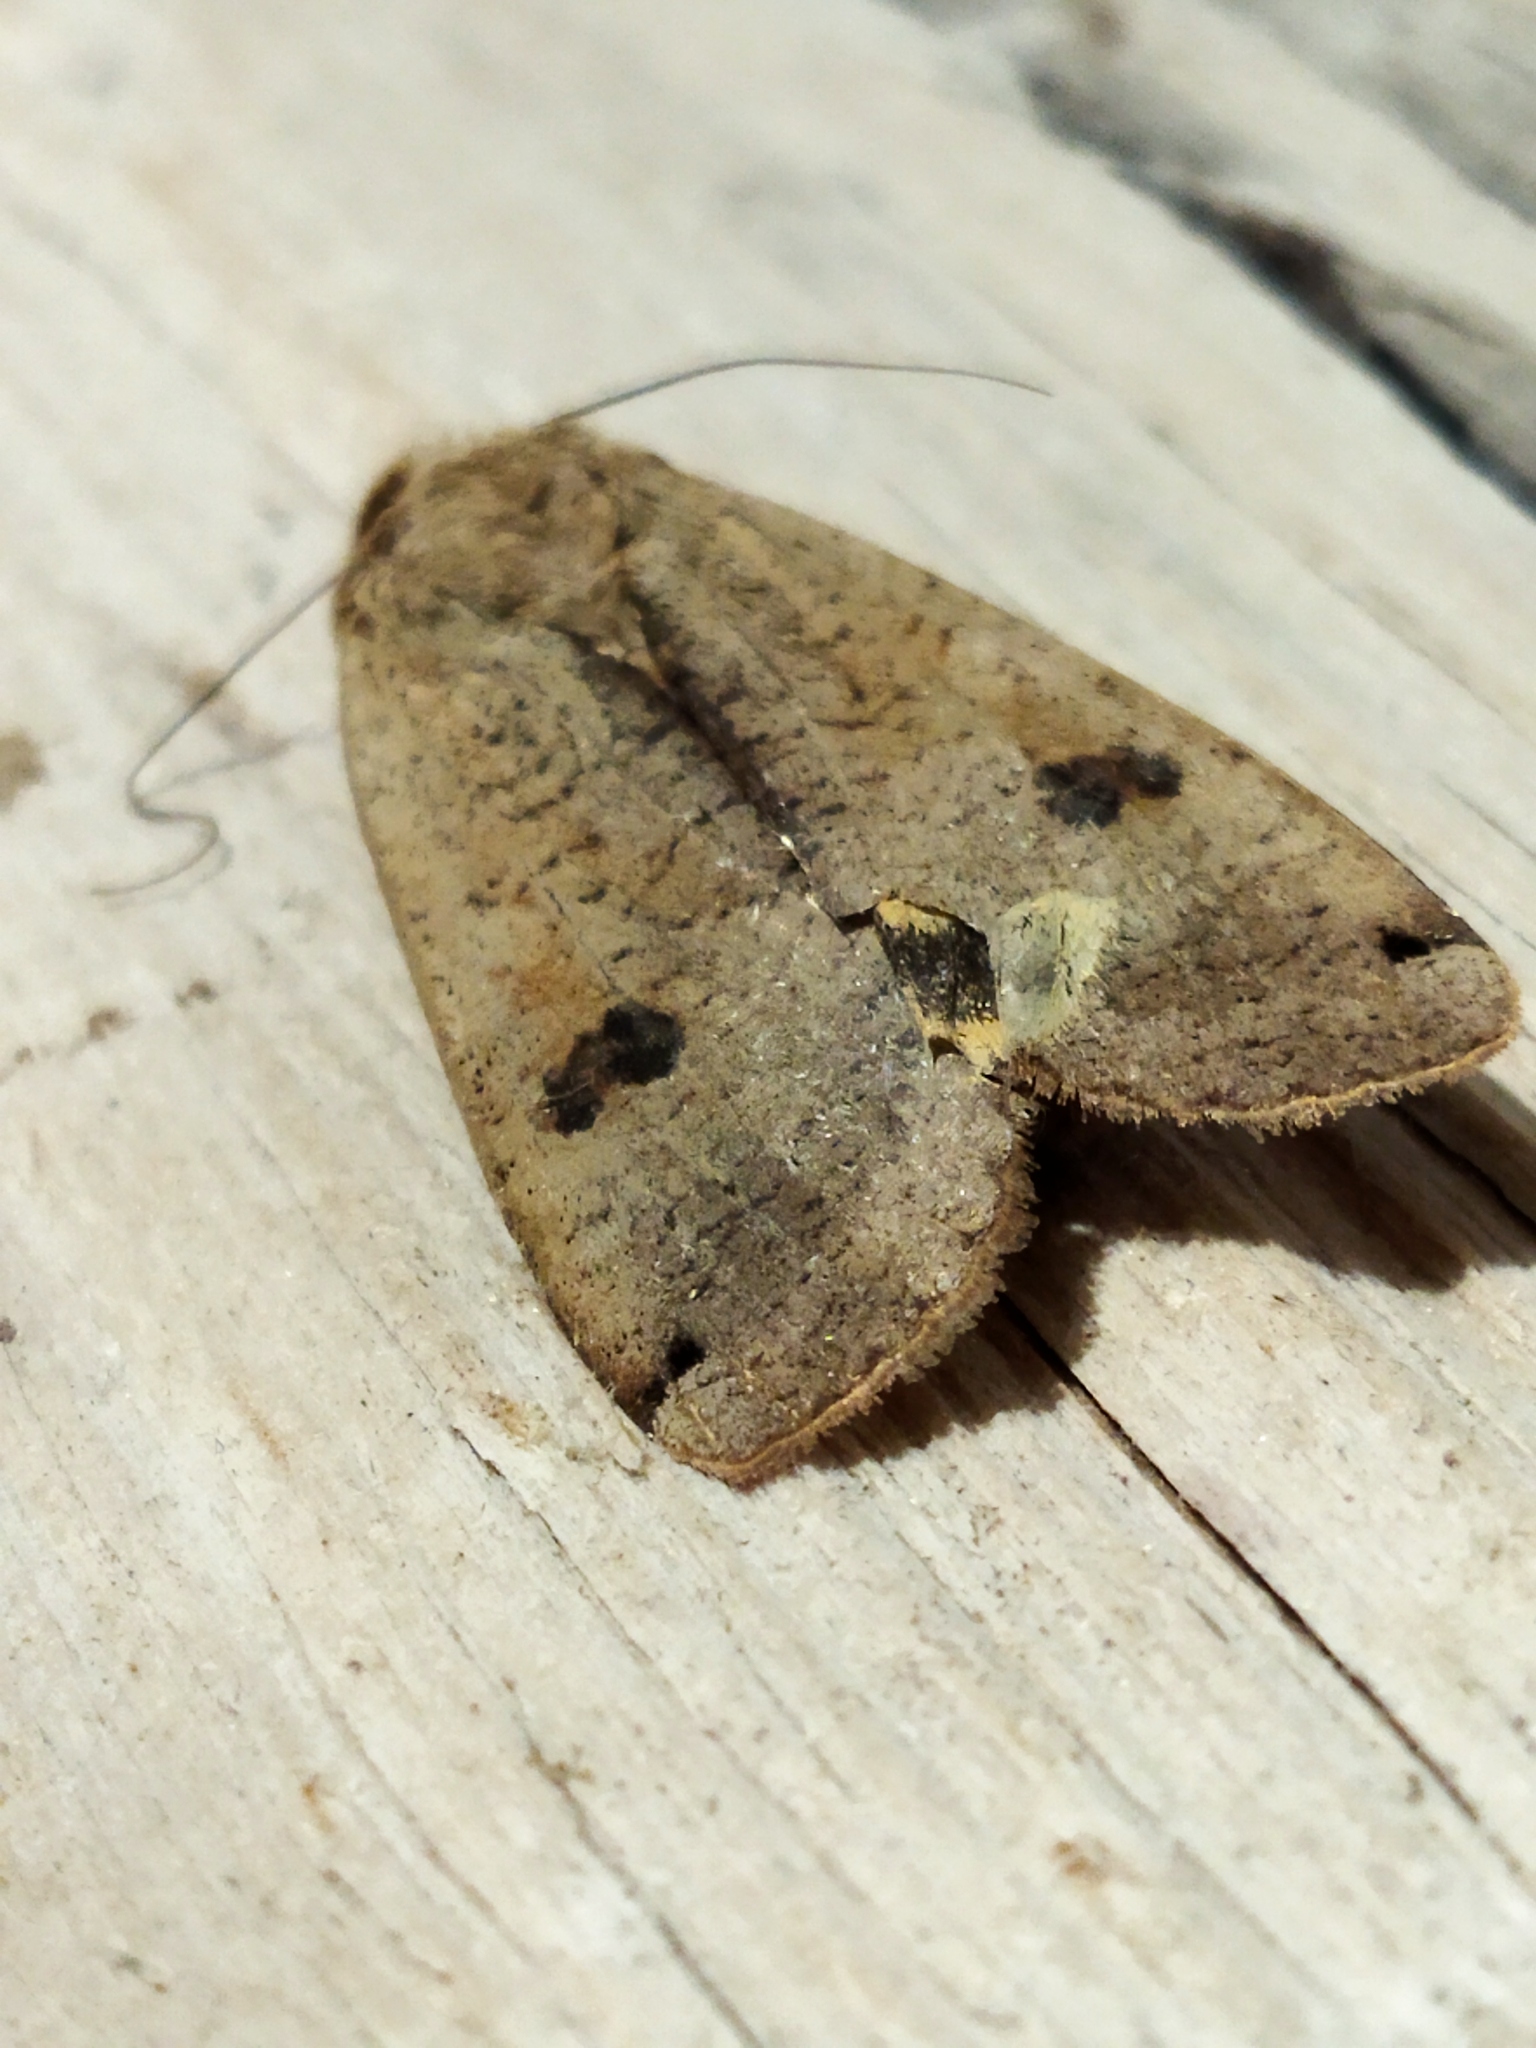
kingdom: Animalia
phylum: Arthropoda
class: Insecta
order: Lepidoptera
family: Noctuidae
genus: Noctua
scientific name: Noctua pronuba
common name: Large yellow underwing
